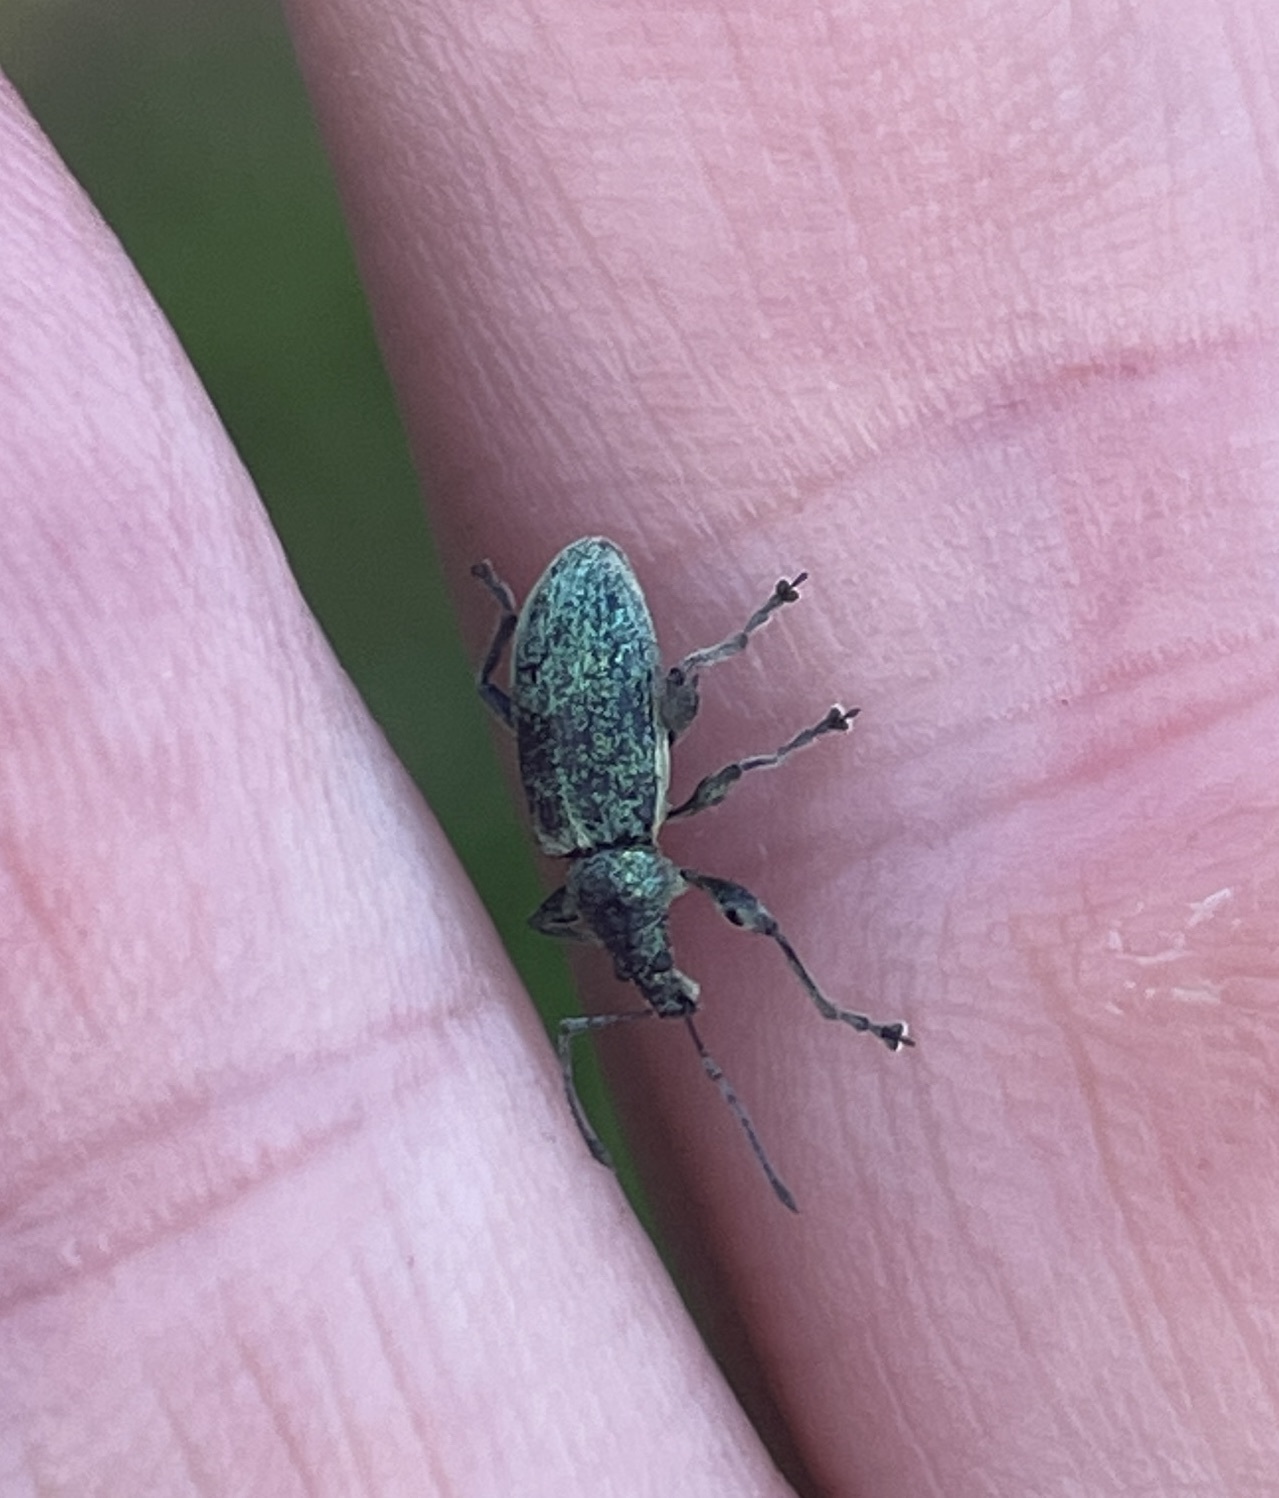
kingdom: Animalia
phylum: Arthropoda
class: Insecta
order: Coleoptera
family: Curculionidae
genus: Phyllobius
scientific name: Phyllobius pomaceus
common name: Green nettle weevil
